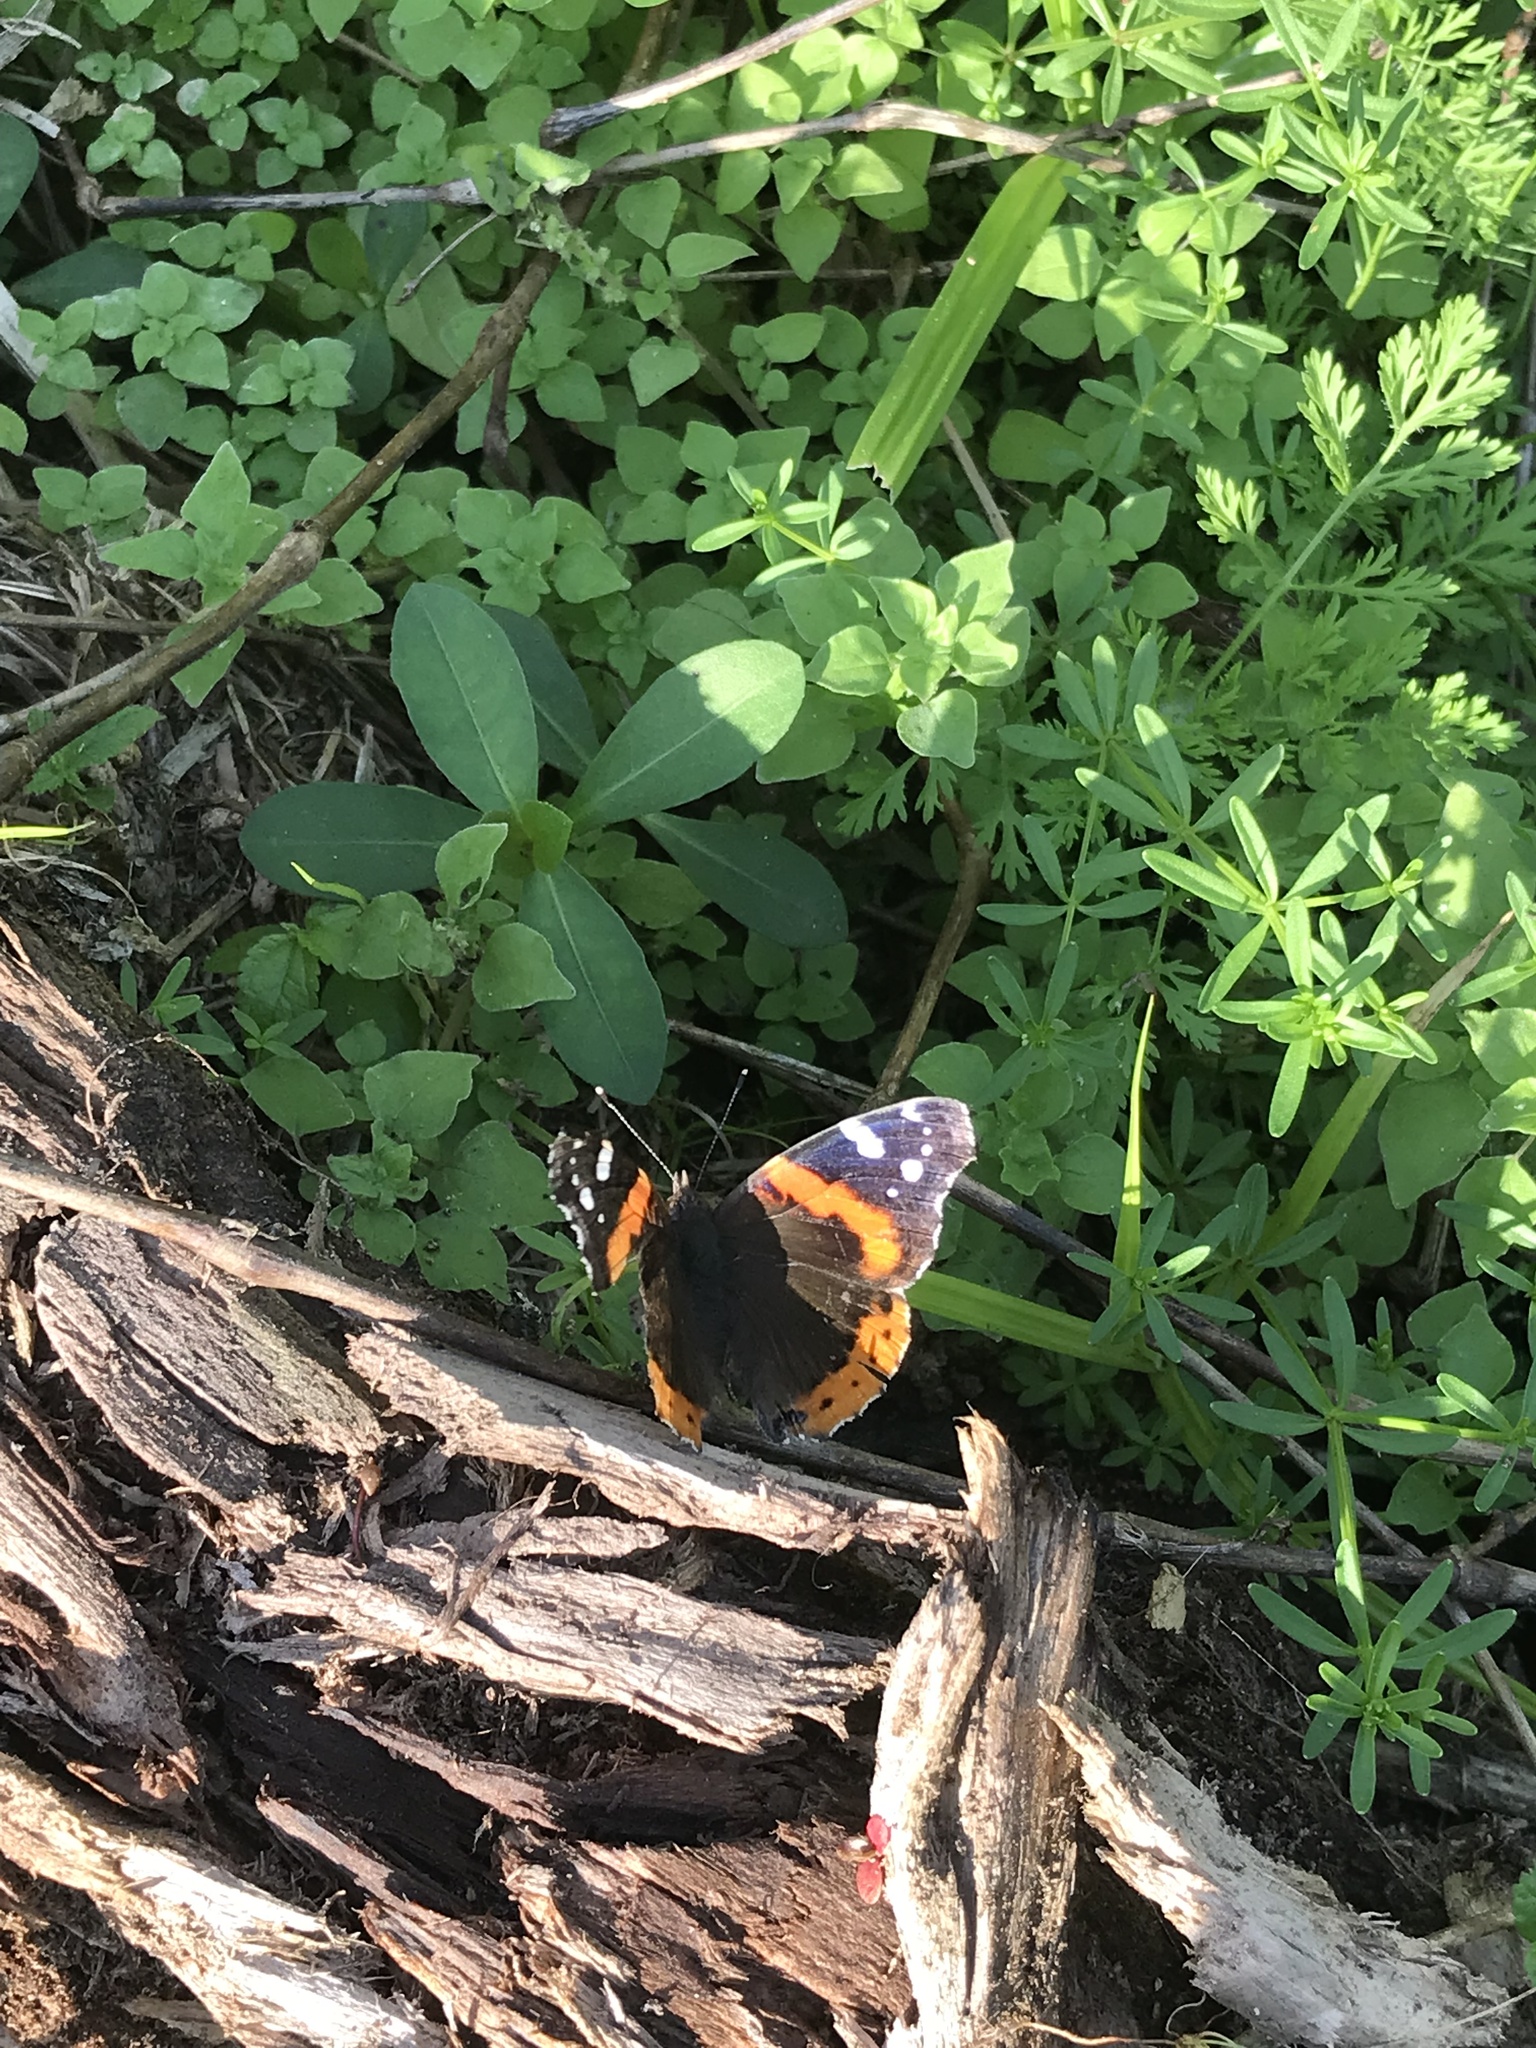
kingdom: Animalia
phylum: Arthropoda
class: Insecta
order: Lepidoptera
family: Nymphalidae
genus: Vanessa
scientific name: Vanessa atalanta
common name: Red admiral
